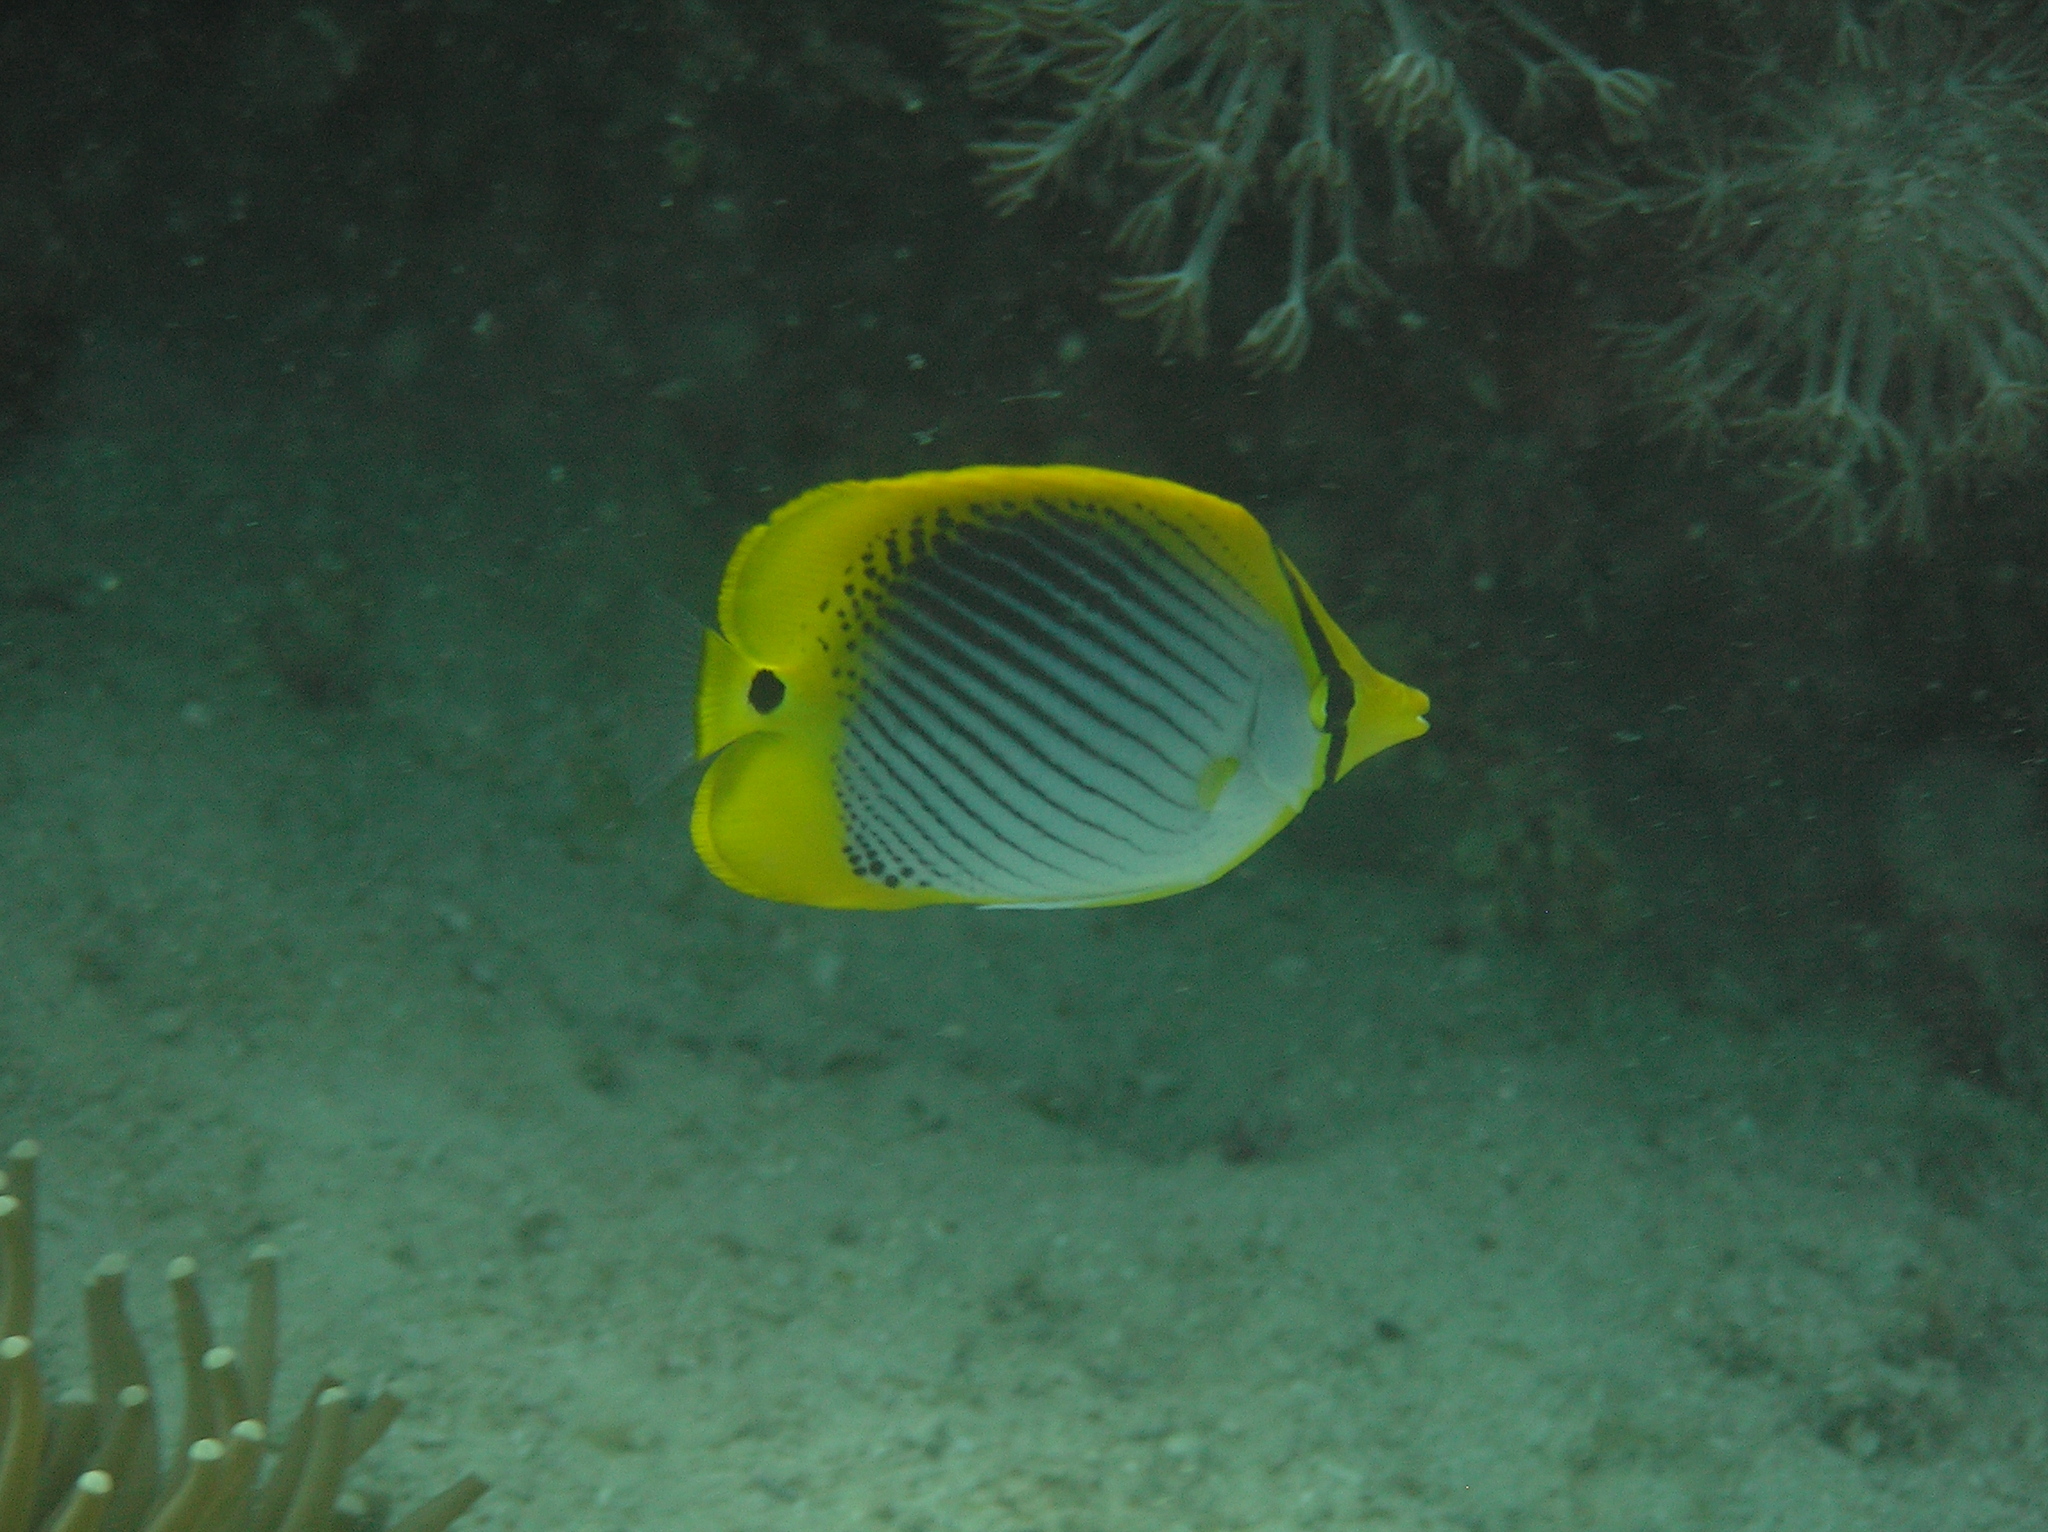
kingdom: Animalia
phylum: Chordata
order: Perciformes
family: Chaetodontidae
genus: Chaetodon
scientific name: Chaetodon ocellicaudus
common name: Spot-tail butterflyfish
